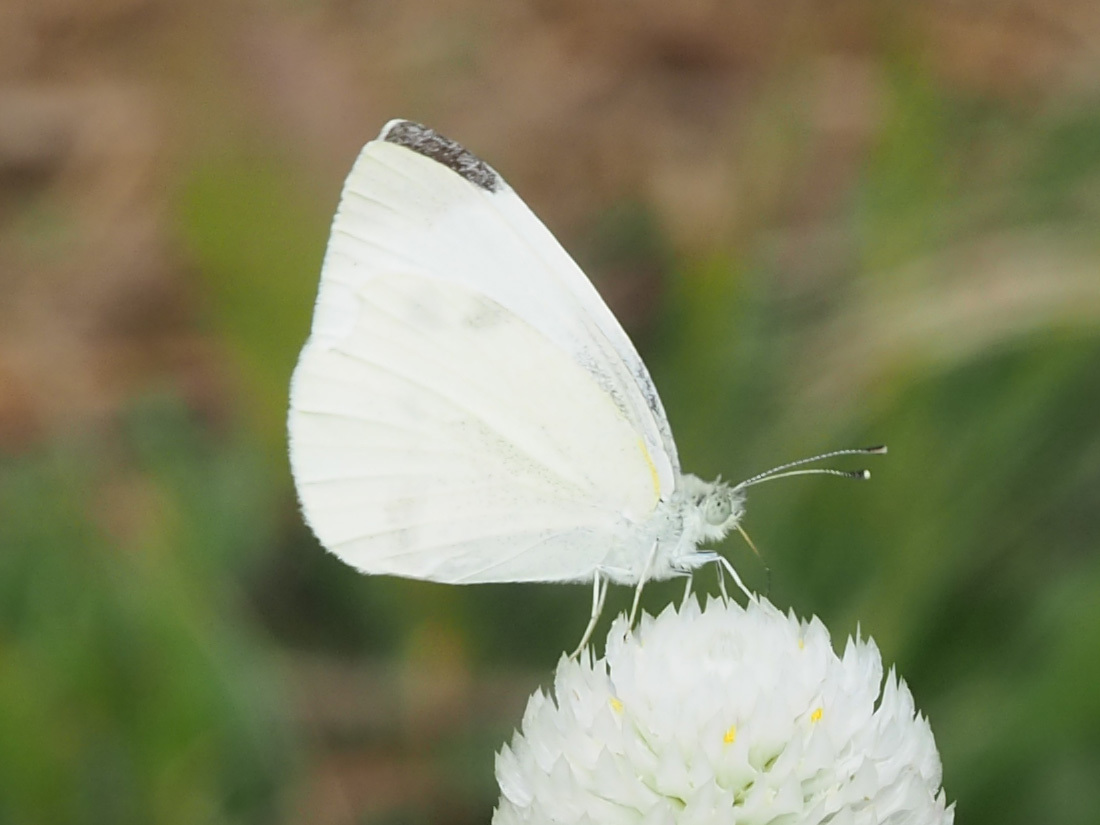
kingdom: Animalia
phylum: Arthropoda
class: Insecta
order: Lepidoptera
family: Pieridae
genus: Pieris
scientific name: Pieris rapae
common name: Small white
